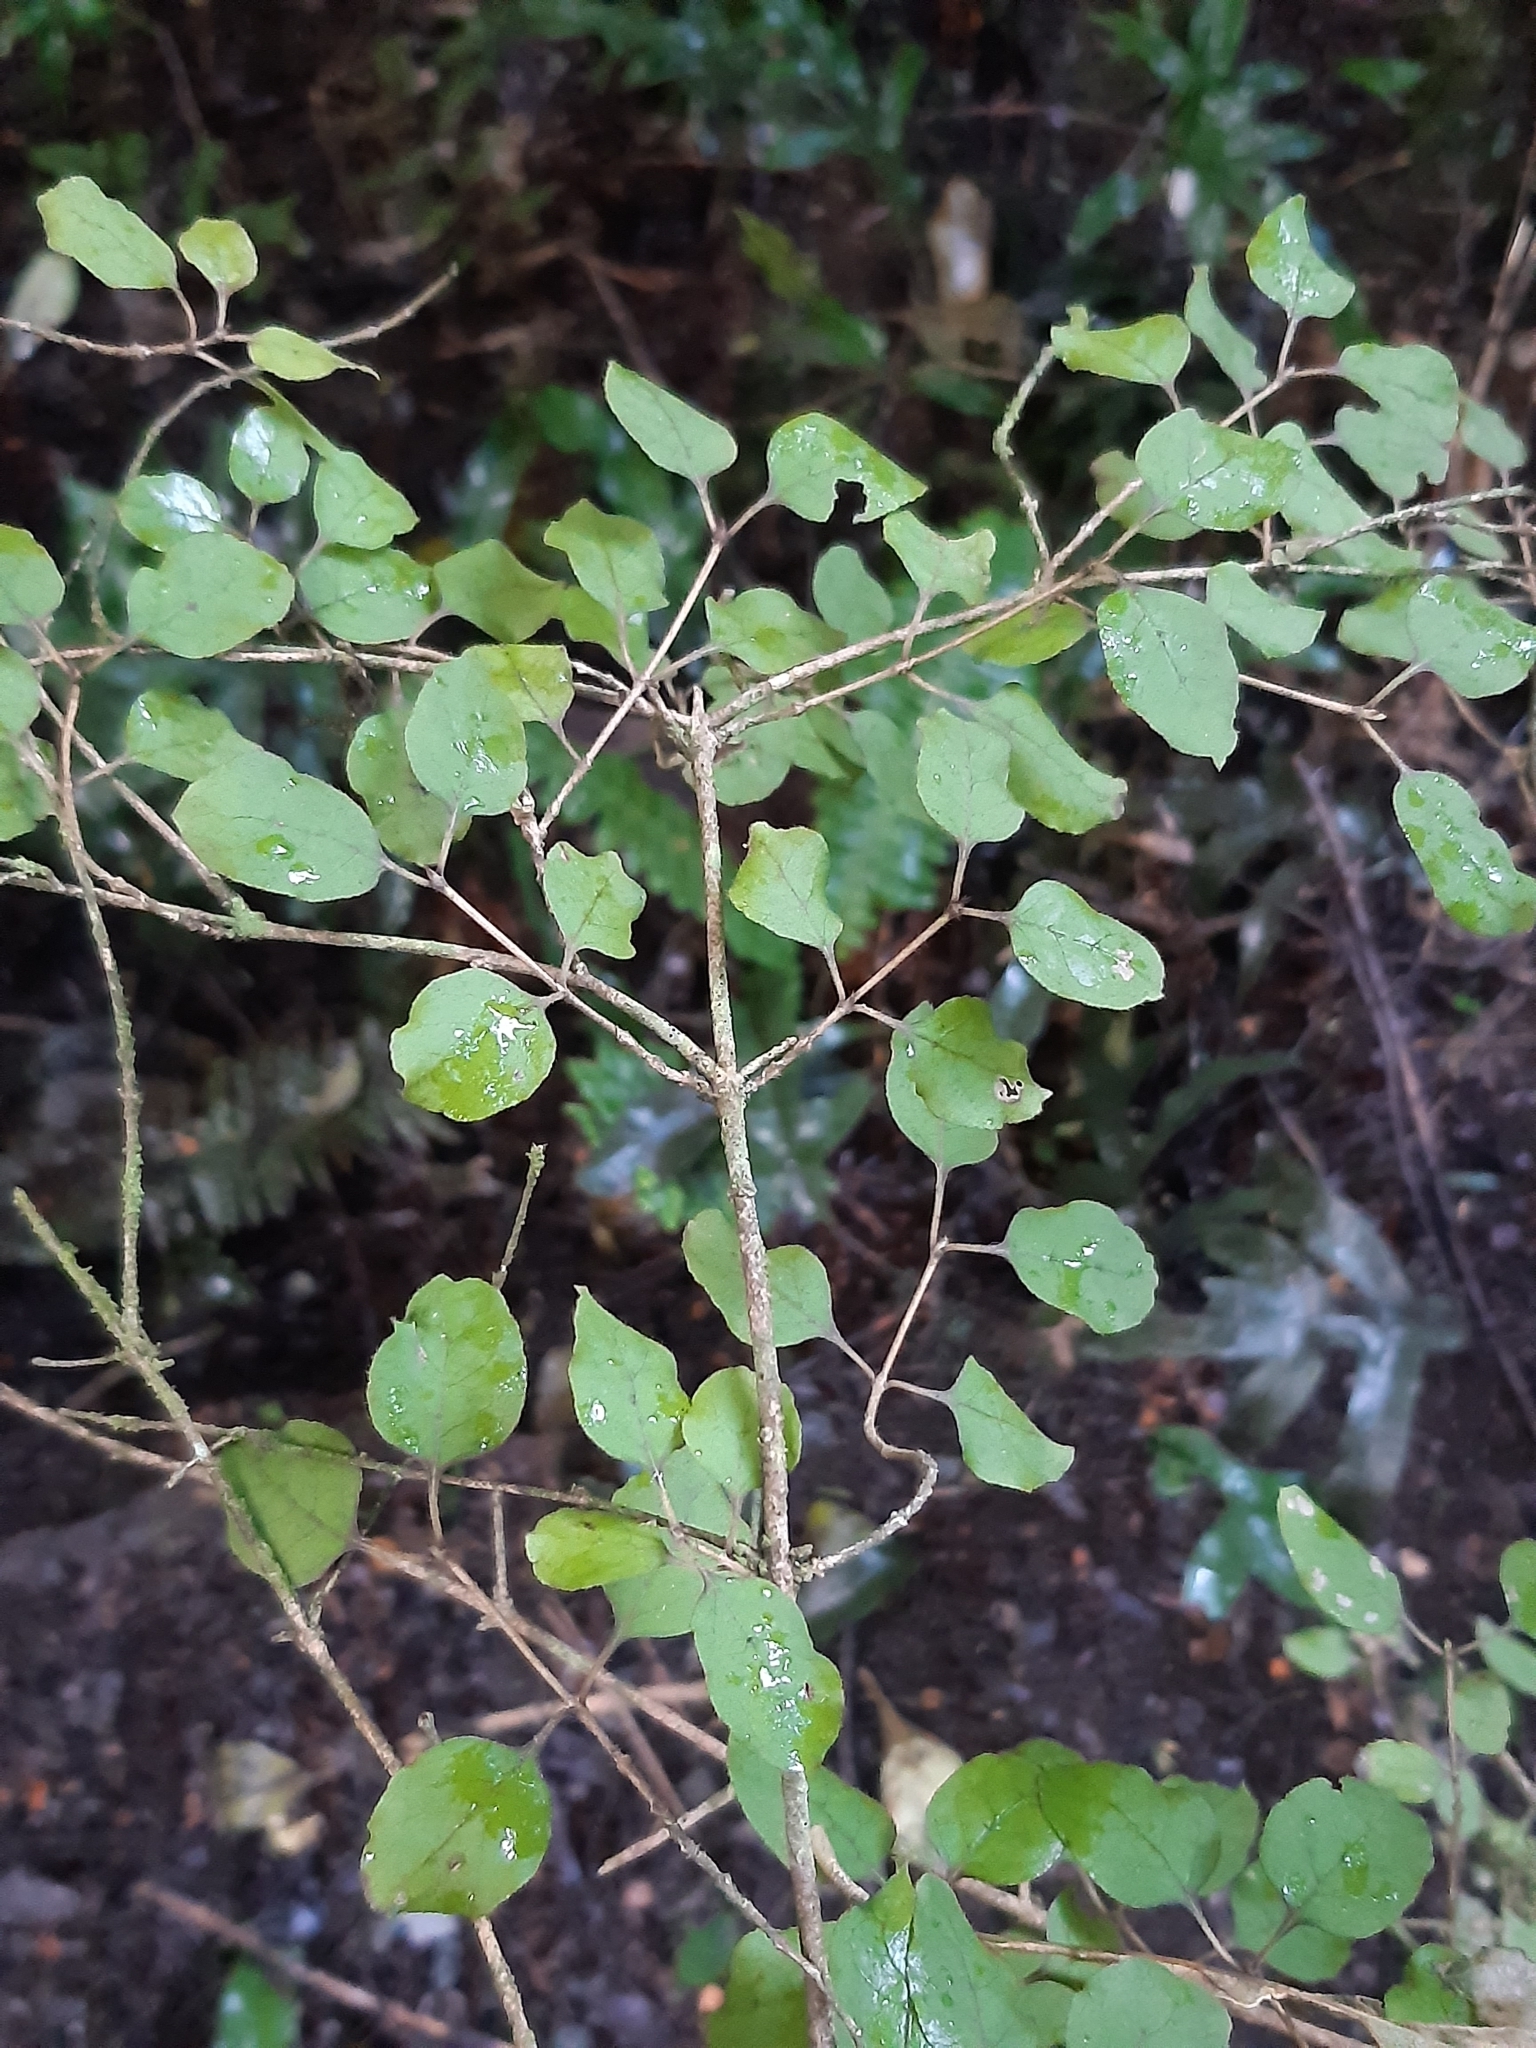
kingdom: Plantae
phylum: Tracheophyta
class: Magnoliopsida
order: Gentianales
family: Rubiaceae
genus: Coprosma
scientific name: Coprosma rotundifolia
